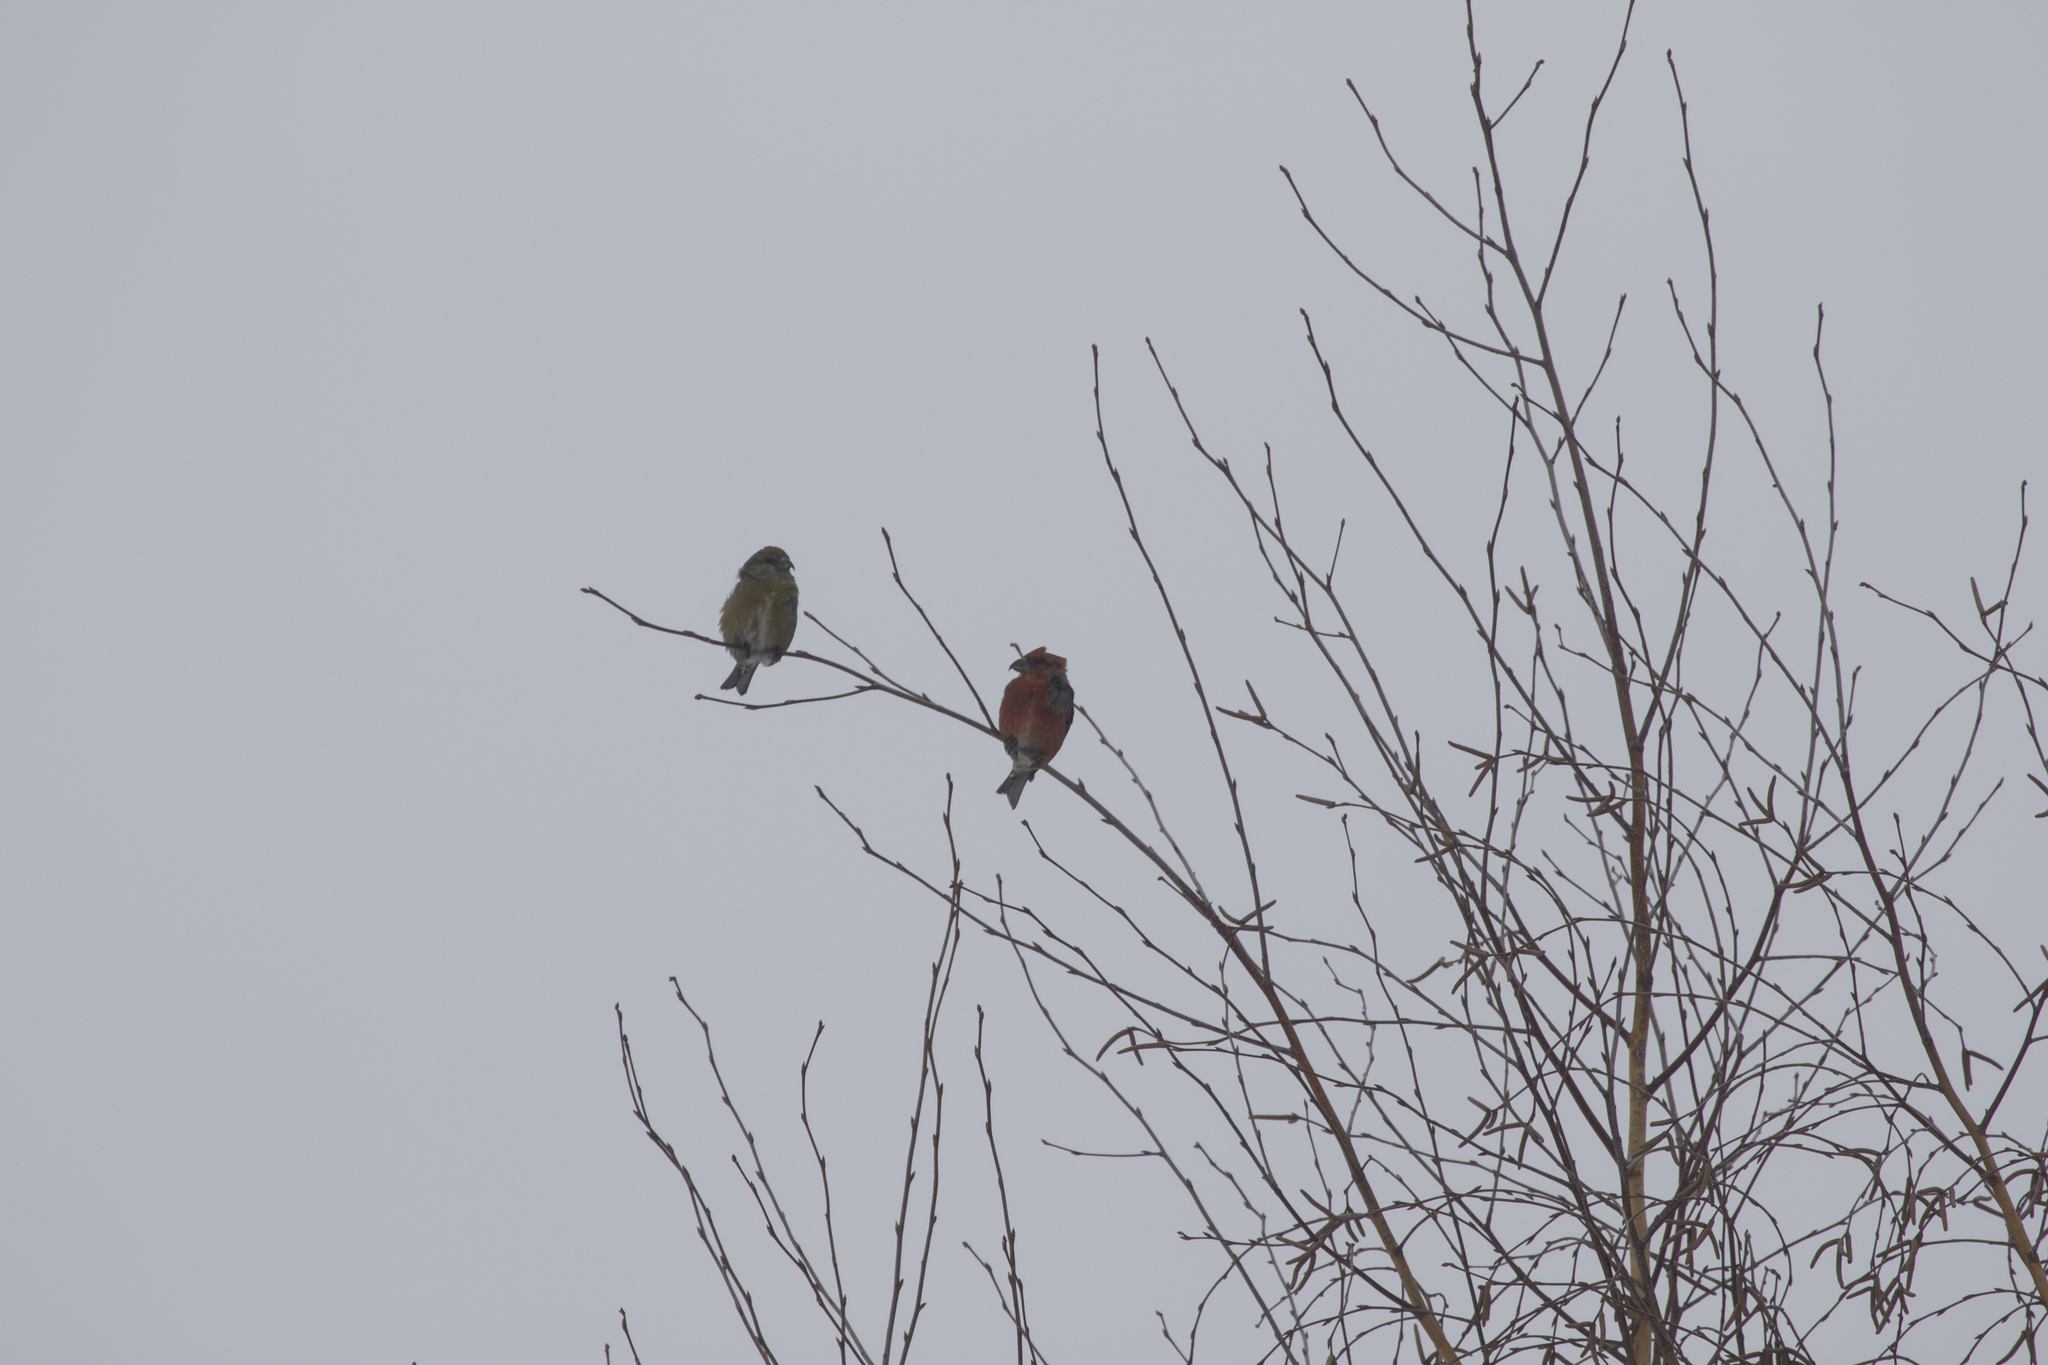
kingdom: Animalia
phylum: Chordata
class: Aves
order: Passeriformes
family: Fringillidae
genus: Loxia
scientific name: Loxia curvirostra
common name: Red crossbill
